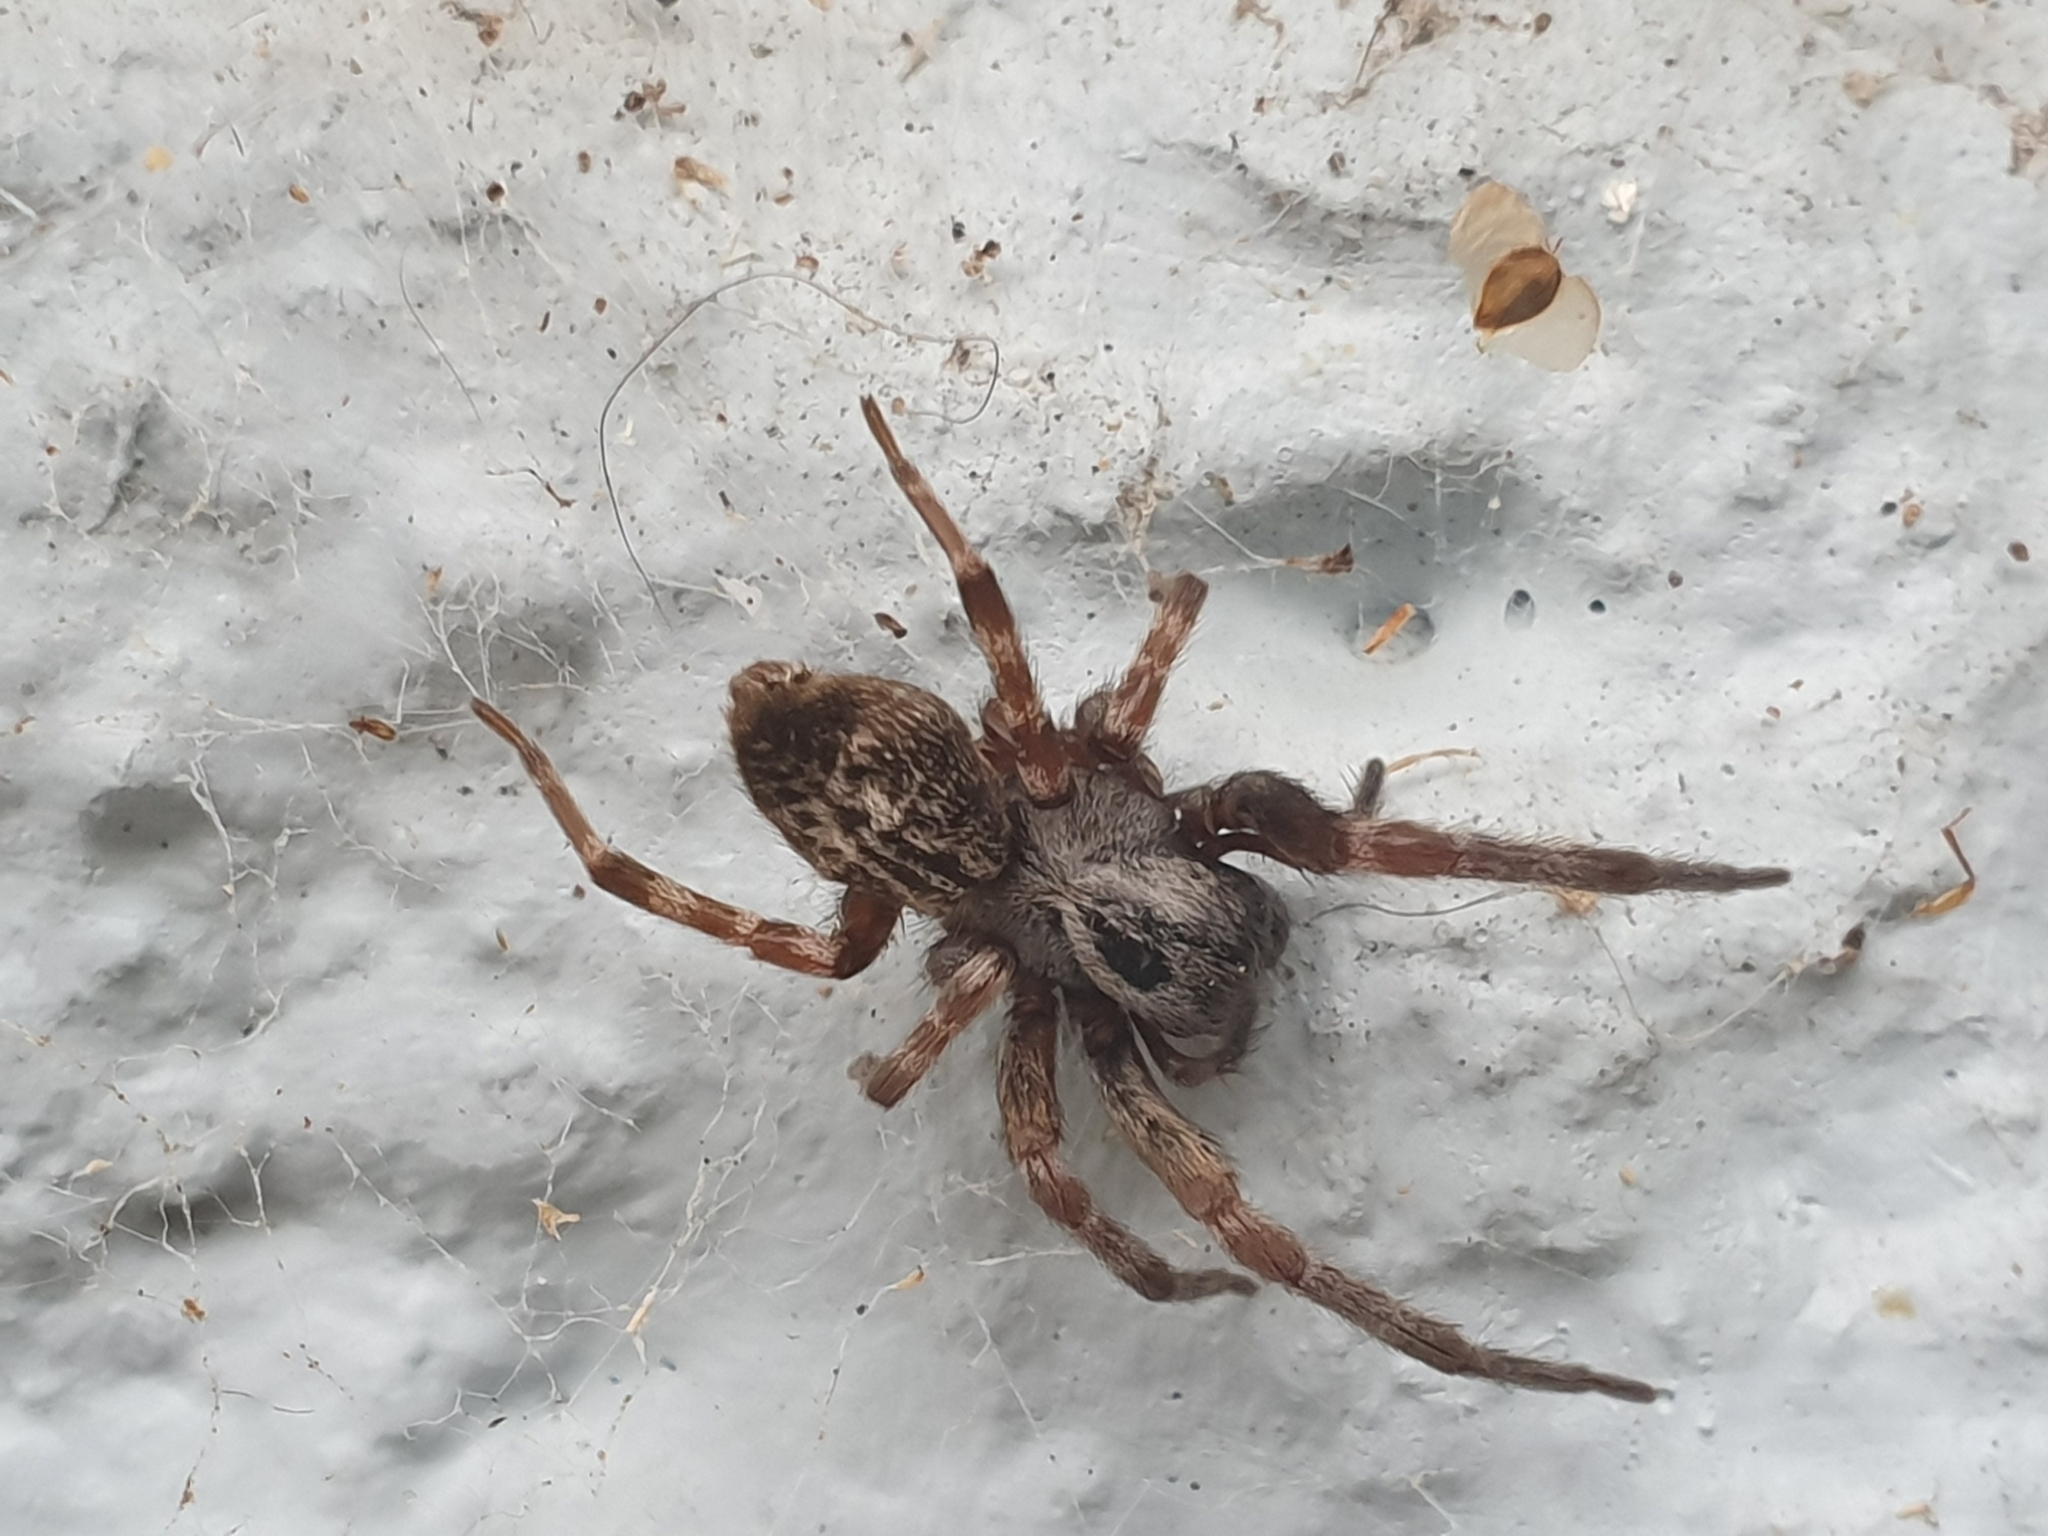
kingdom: Animalia
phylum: Arthropoda
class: Arachnida
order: Araneae
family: Desidae
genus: Badumna
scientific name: Badumna longinqua
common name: Gray house spider
